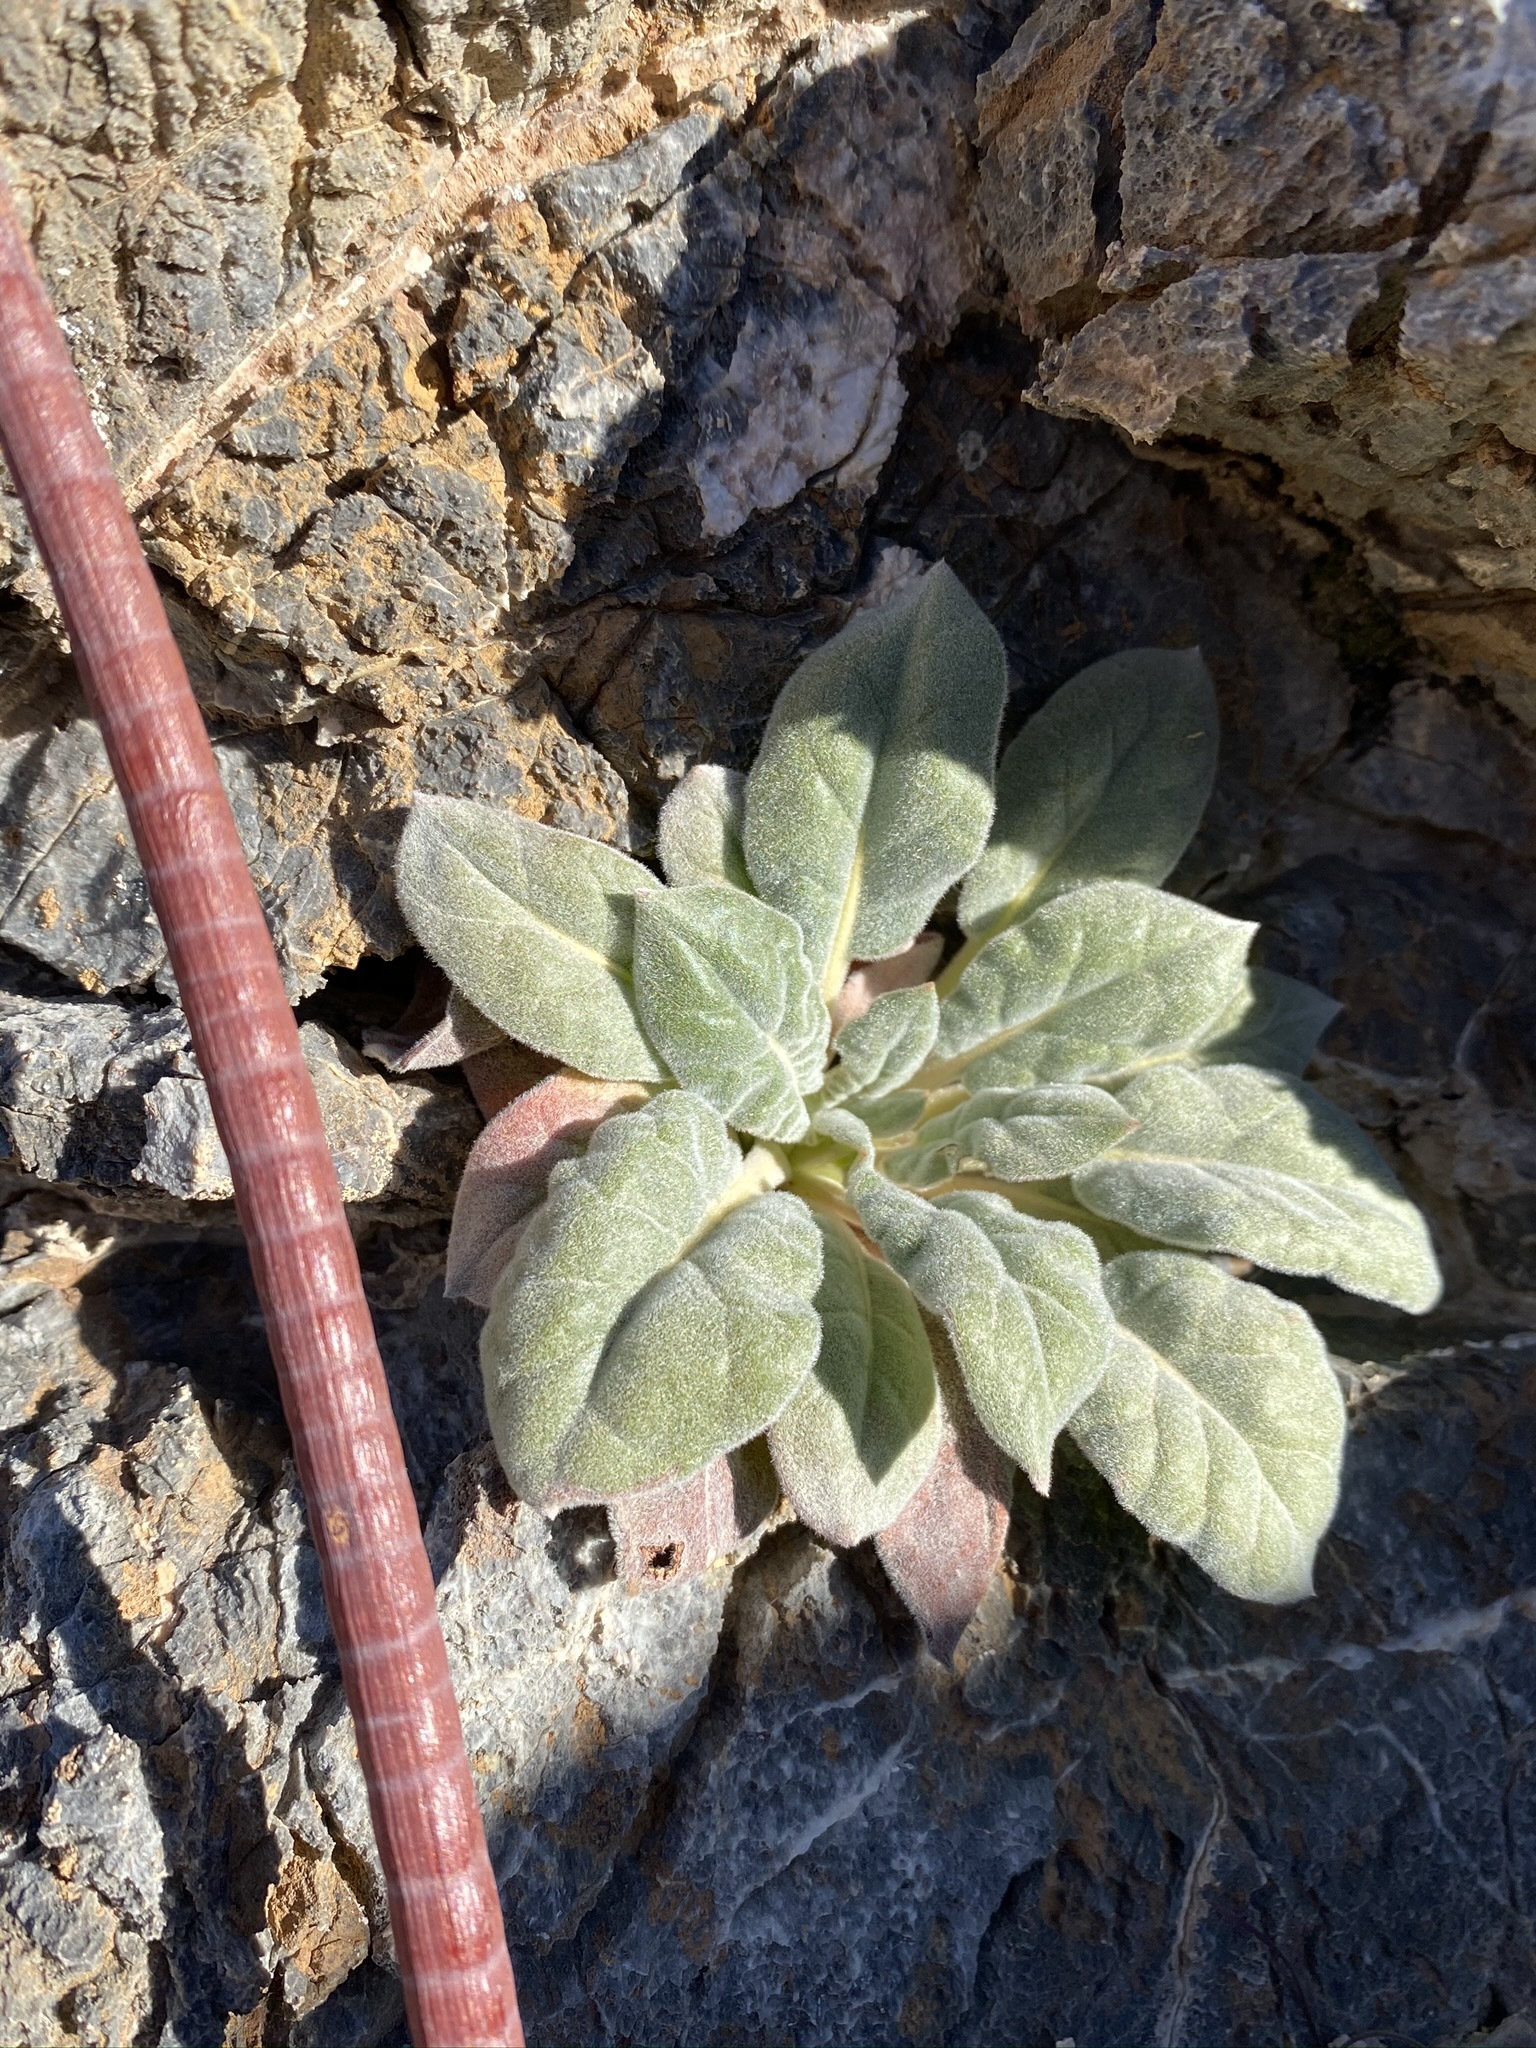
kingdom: Plantae
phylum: Tracheophyta
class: Magnoliopsida
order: Caryophyllales
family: Polygonaceae
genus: Eriogonum
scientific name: Eriogonum intrafractum
